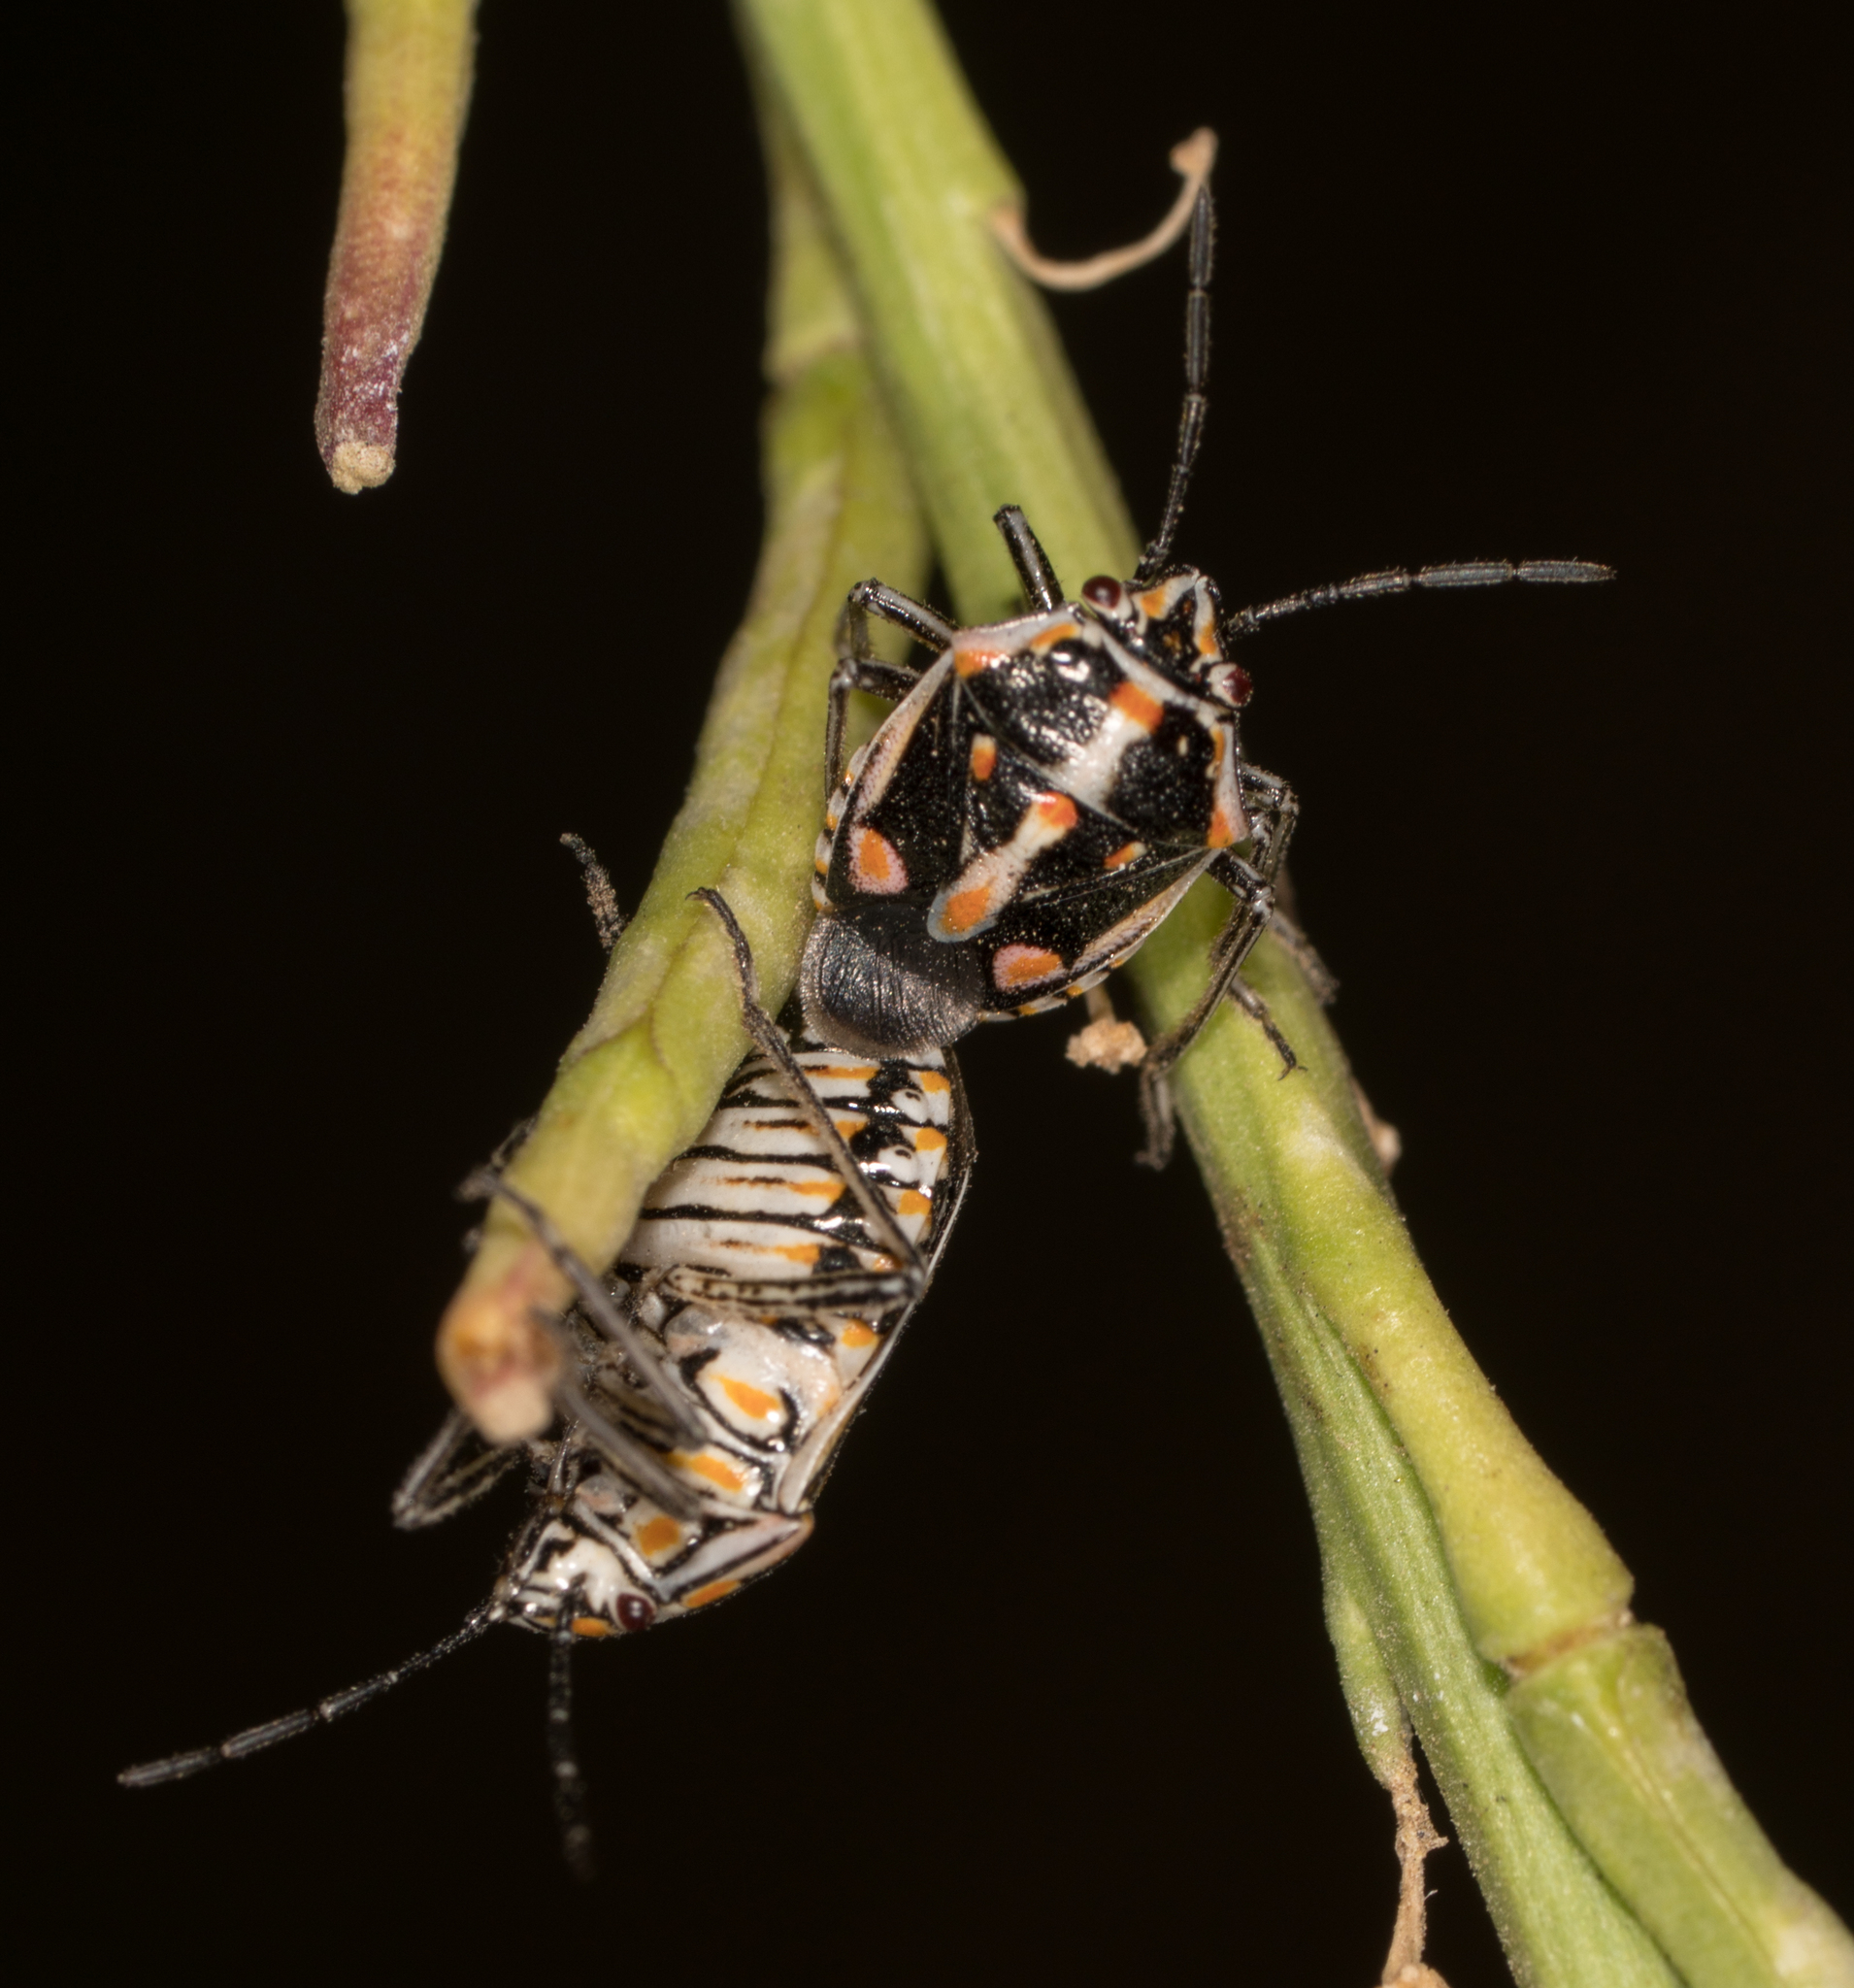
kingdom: Animalia
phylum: Arthropoda
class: Insecta
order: Hemiptera
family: Pentatomidae
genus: Bagrada
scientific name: Bagrada hilaris
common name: Bagrada bug
